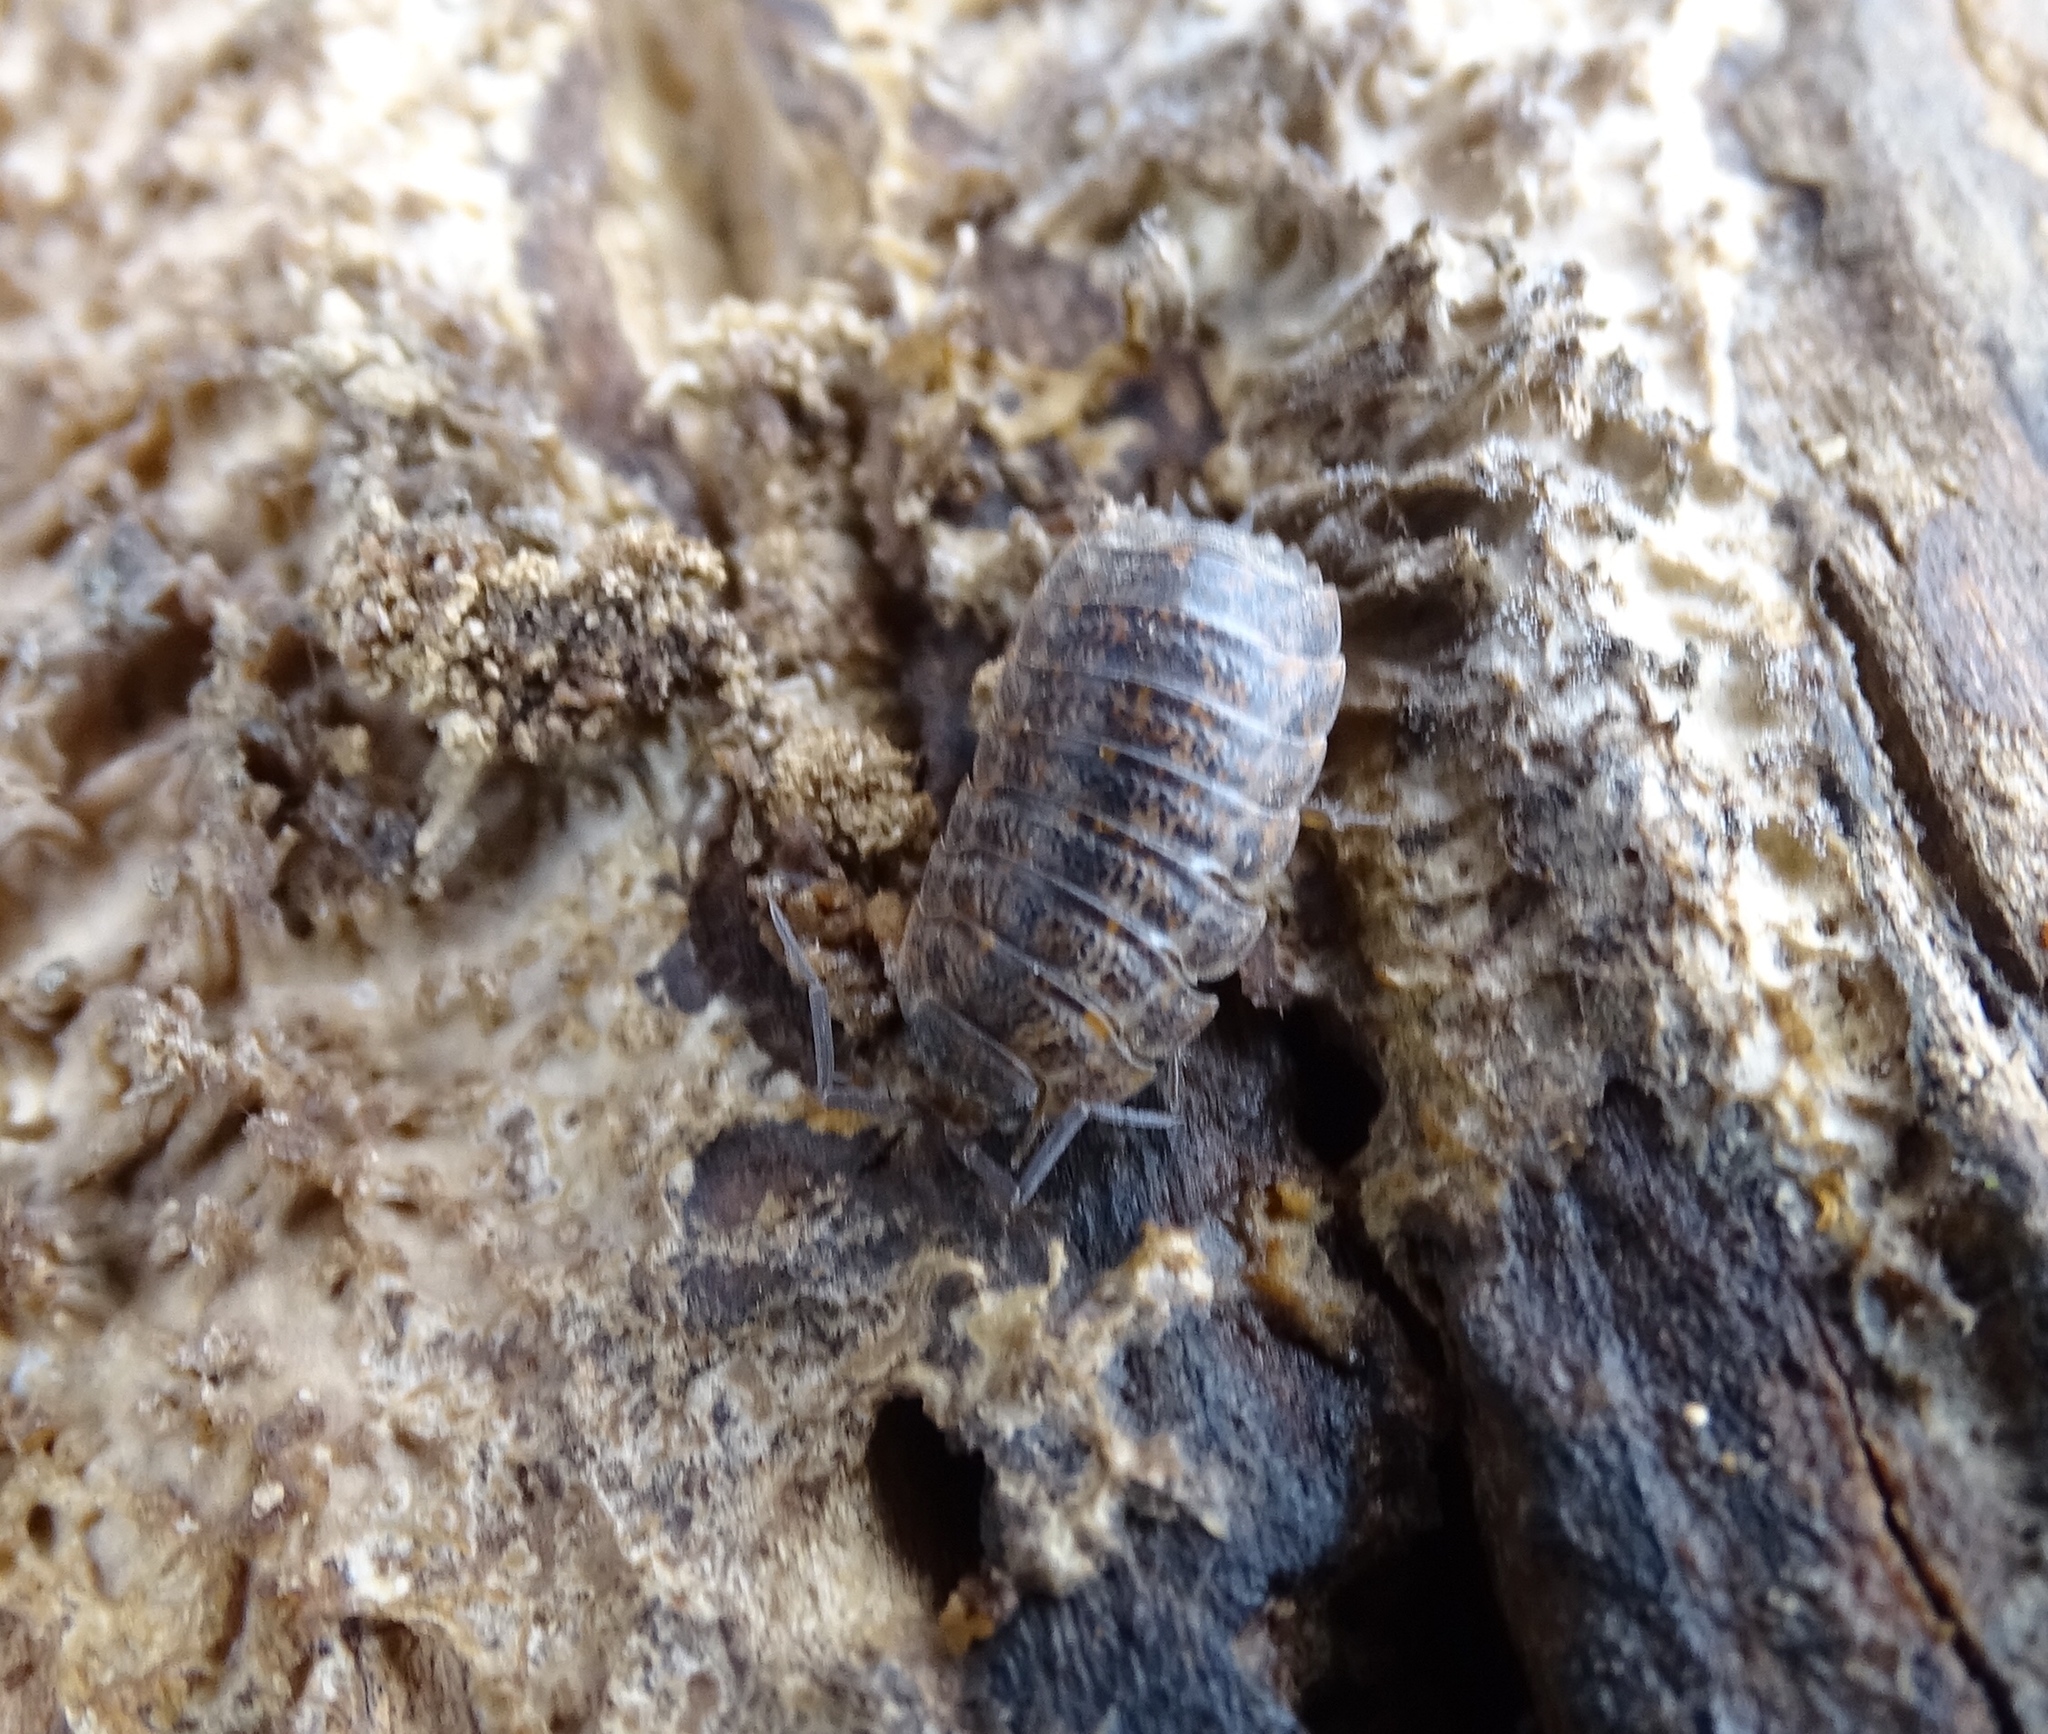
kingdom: Animalia
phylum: Arthropoda
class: Malacostraca
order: Isopoda
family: Trachelipodidae
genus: Trachelipus
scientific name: Trachelipus rathkii
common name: Isopod
